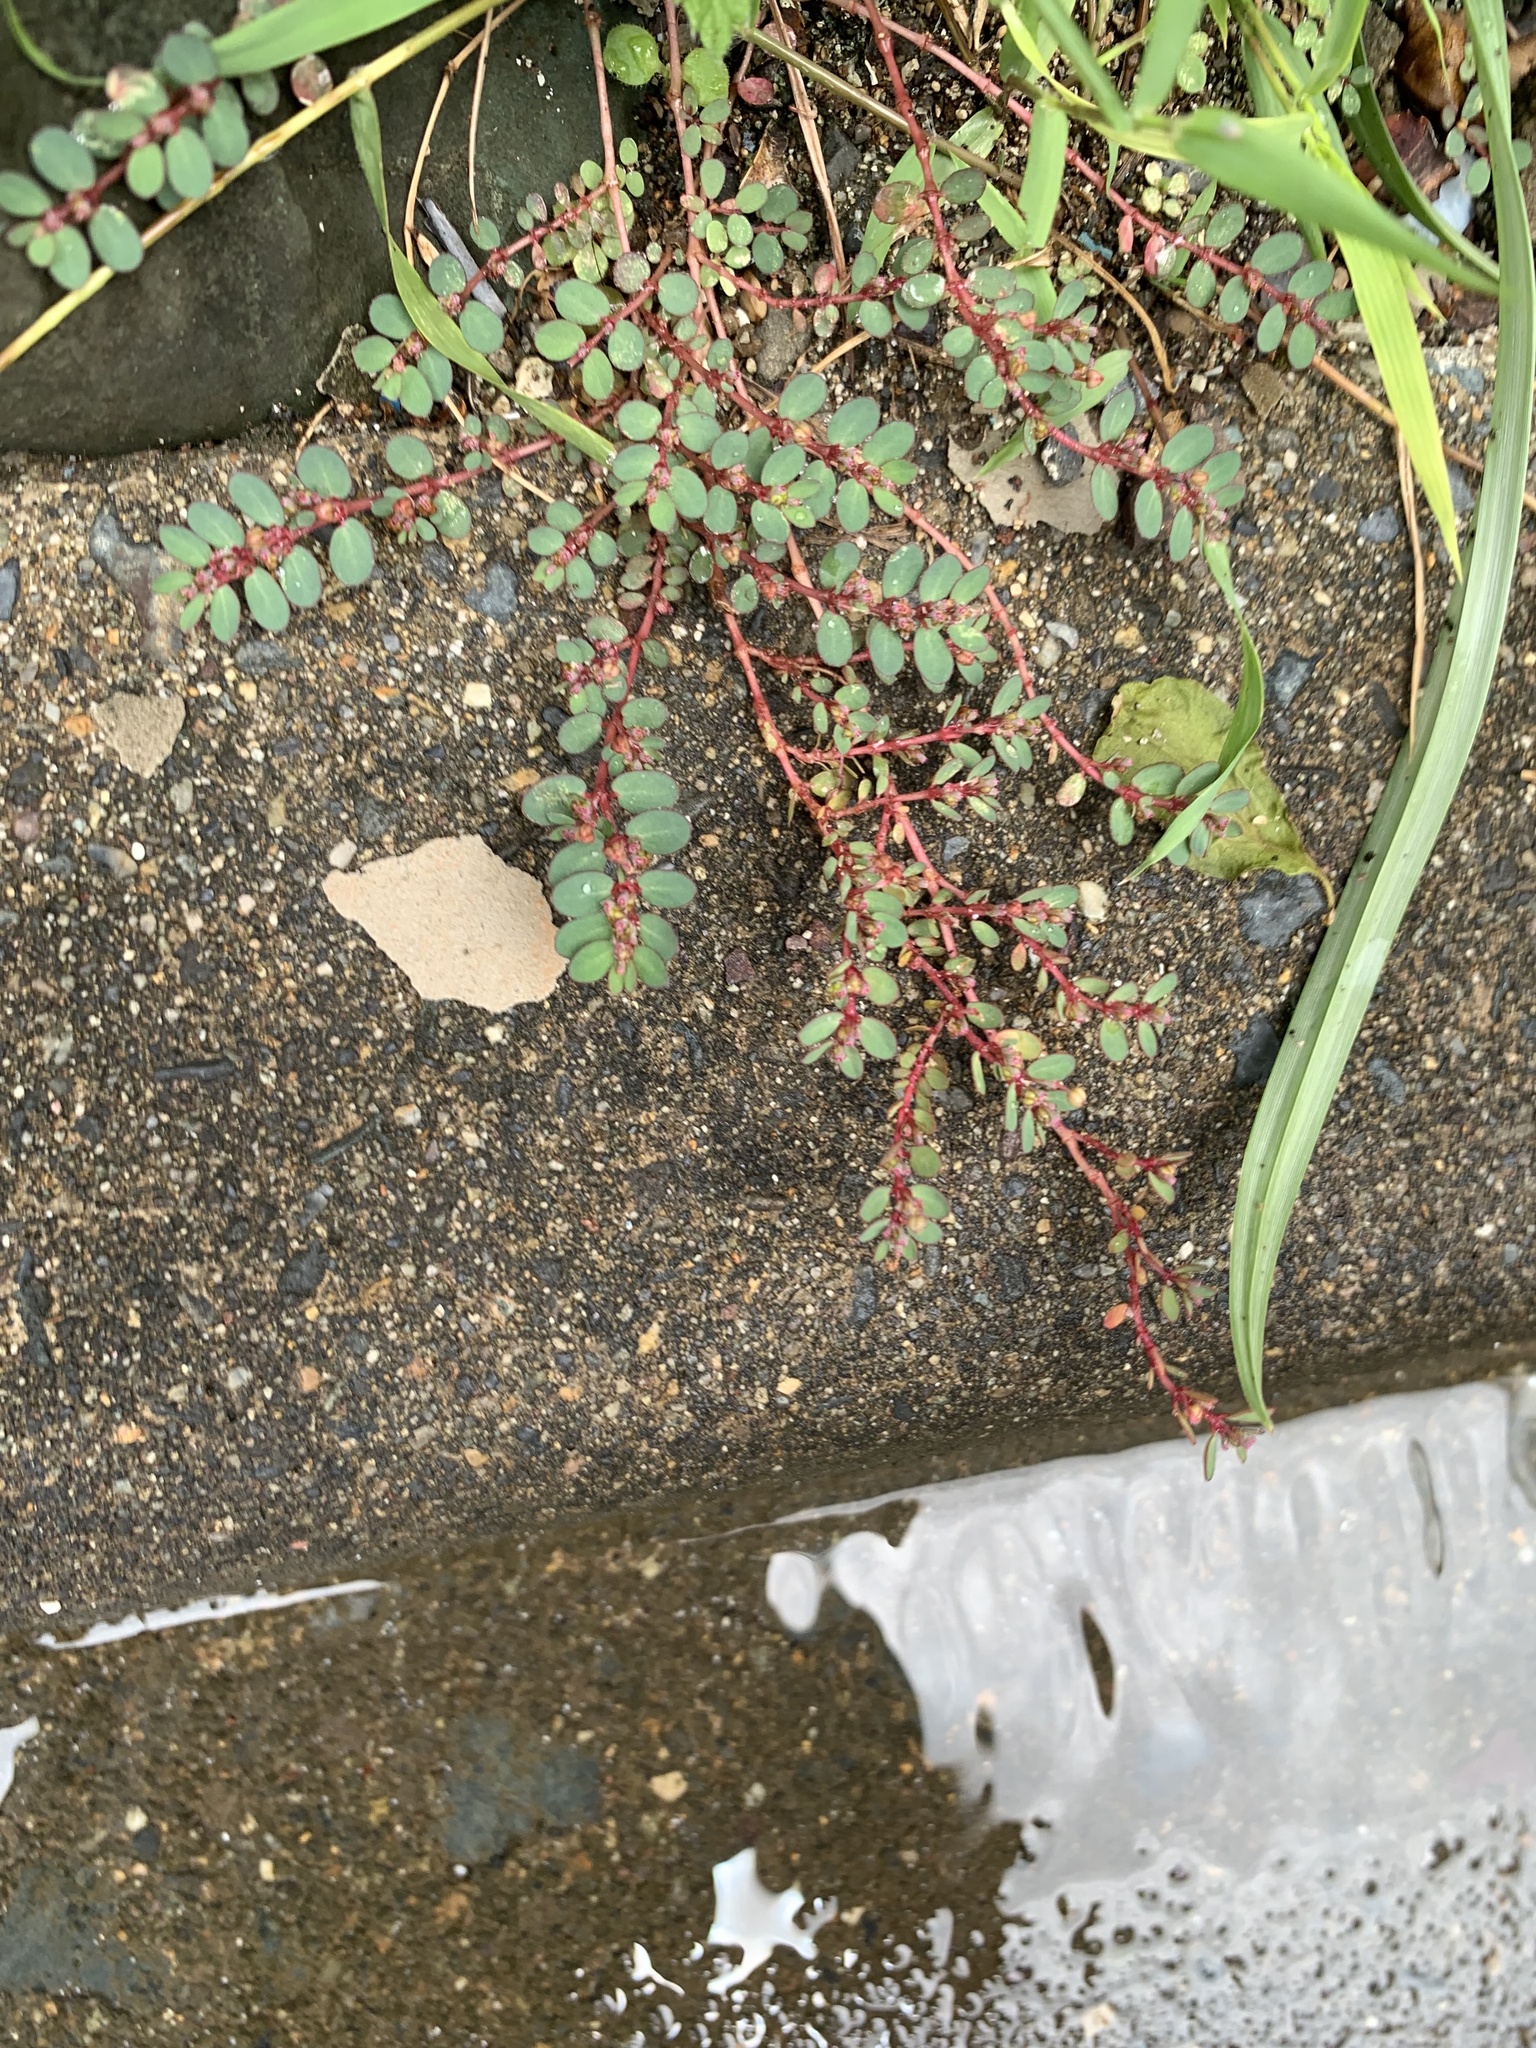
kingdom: Plantae
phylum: Tracheophyta
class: Magnoliopsida
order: Malpighiales
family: Euphorbiaceae
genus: Euphorbia
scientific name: Euphorbia prostrata
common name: Prostrate sandmat
